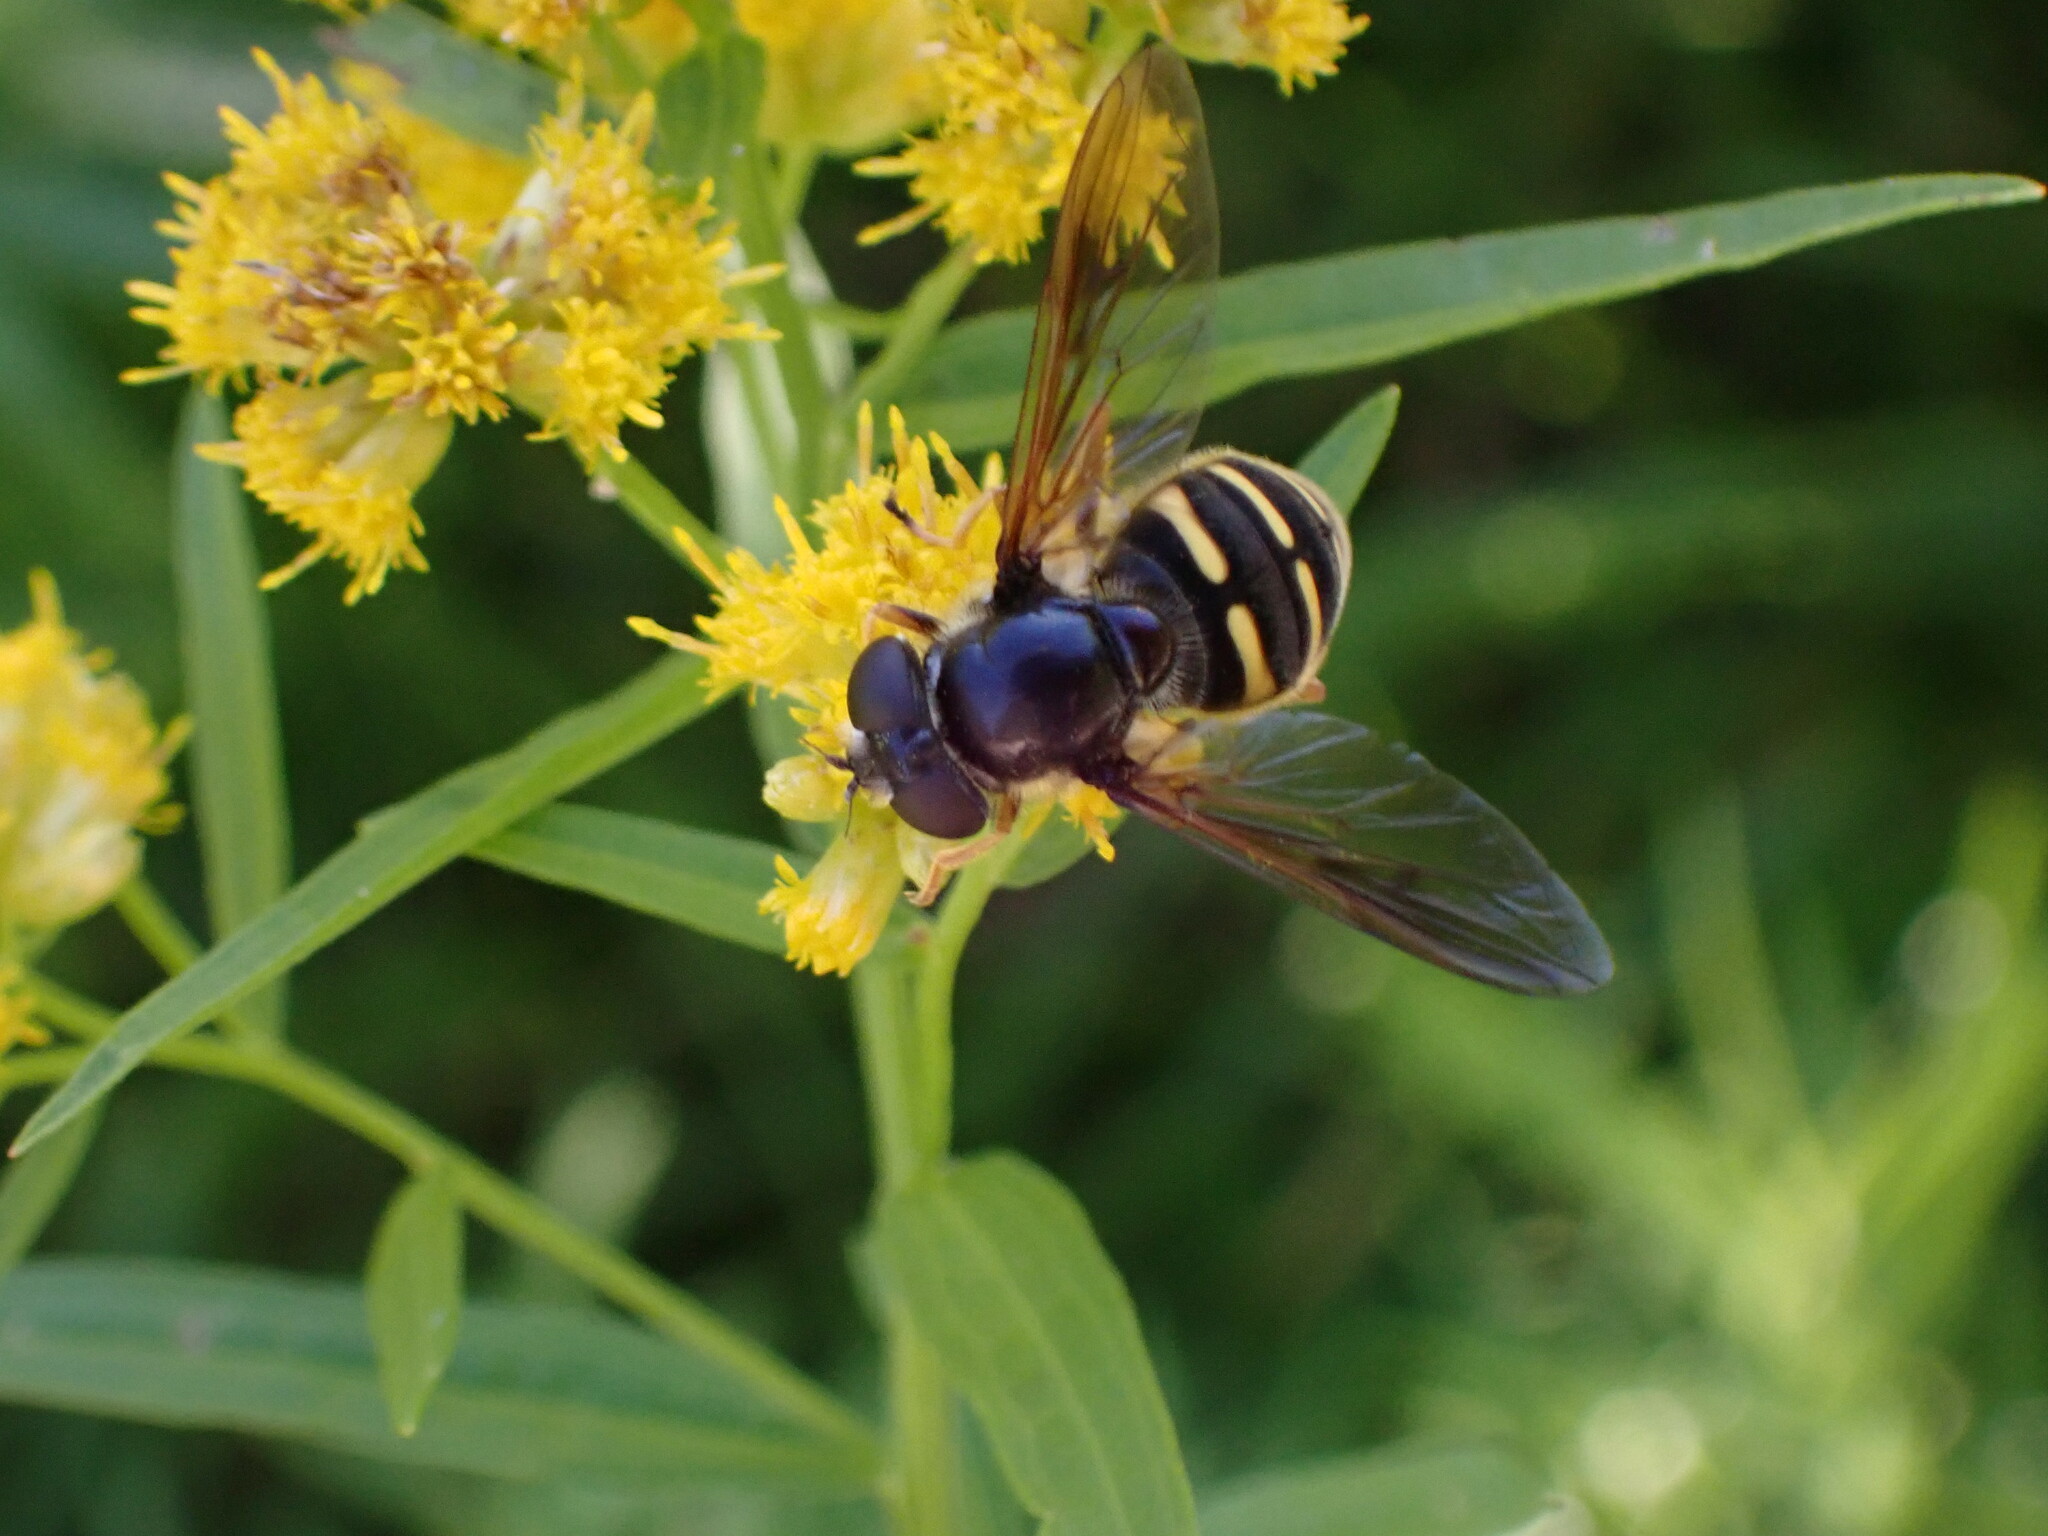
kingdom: Animalia
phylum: Arthropoda
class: Insecta
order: Diptera
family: Syrphidae
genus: Sericomyia
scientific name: Sericomyia chalcopyga
